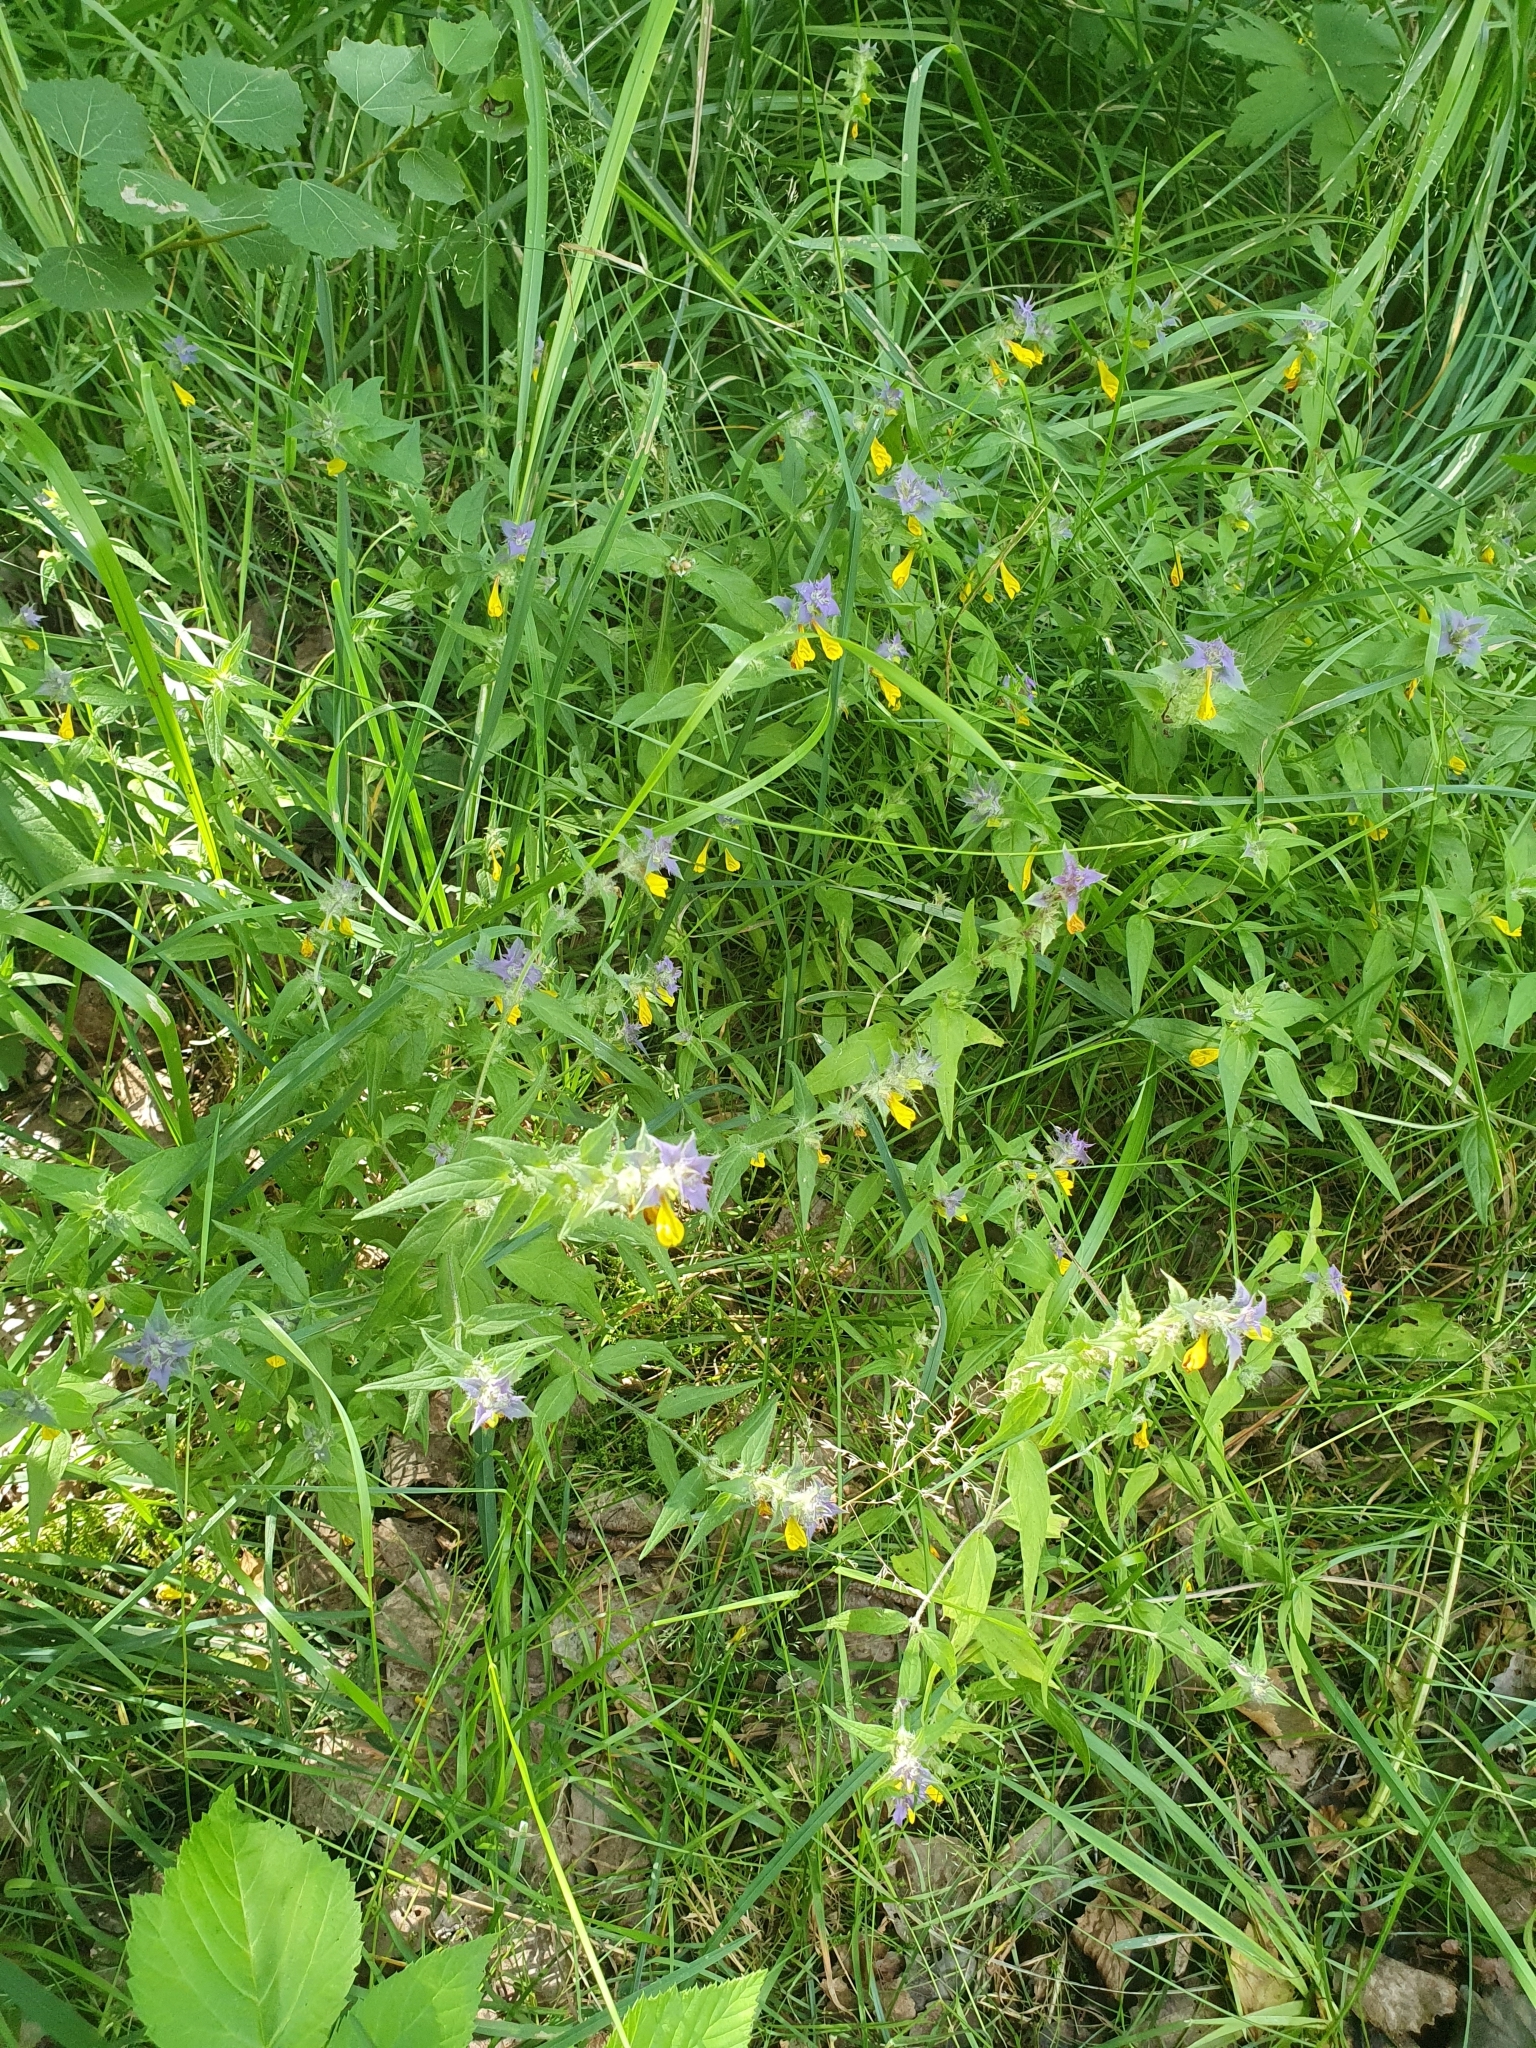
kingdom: Plantae
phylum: Tracheophyta
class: Magnoliopsida
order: Lamiales
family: Orobanchaceae
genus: Melampyrum
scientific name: Melampyrum nemorosum
